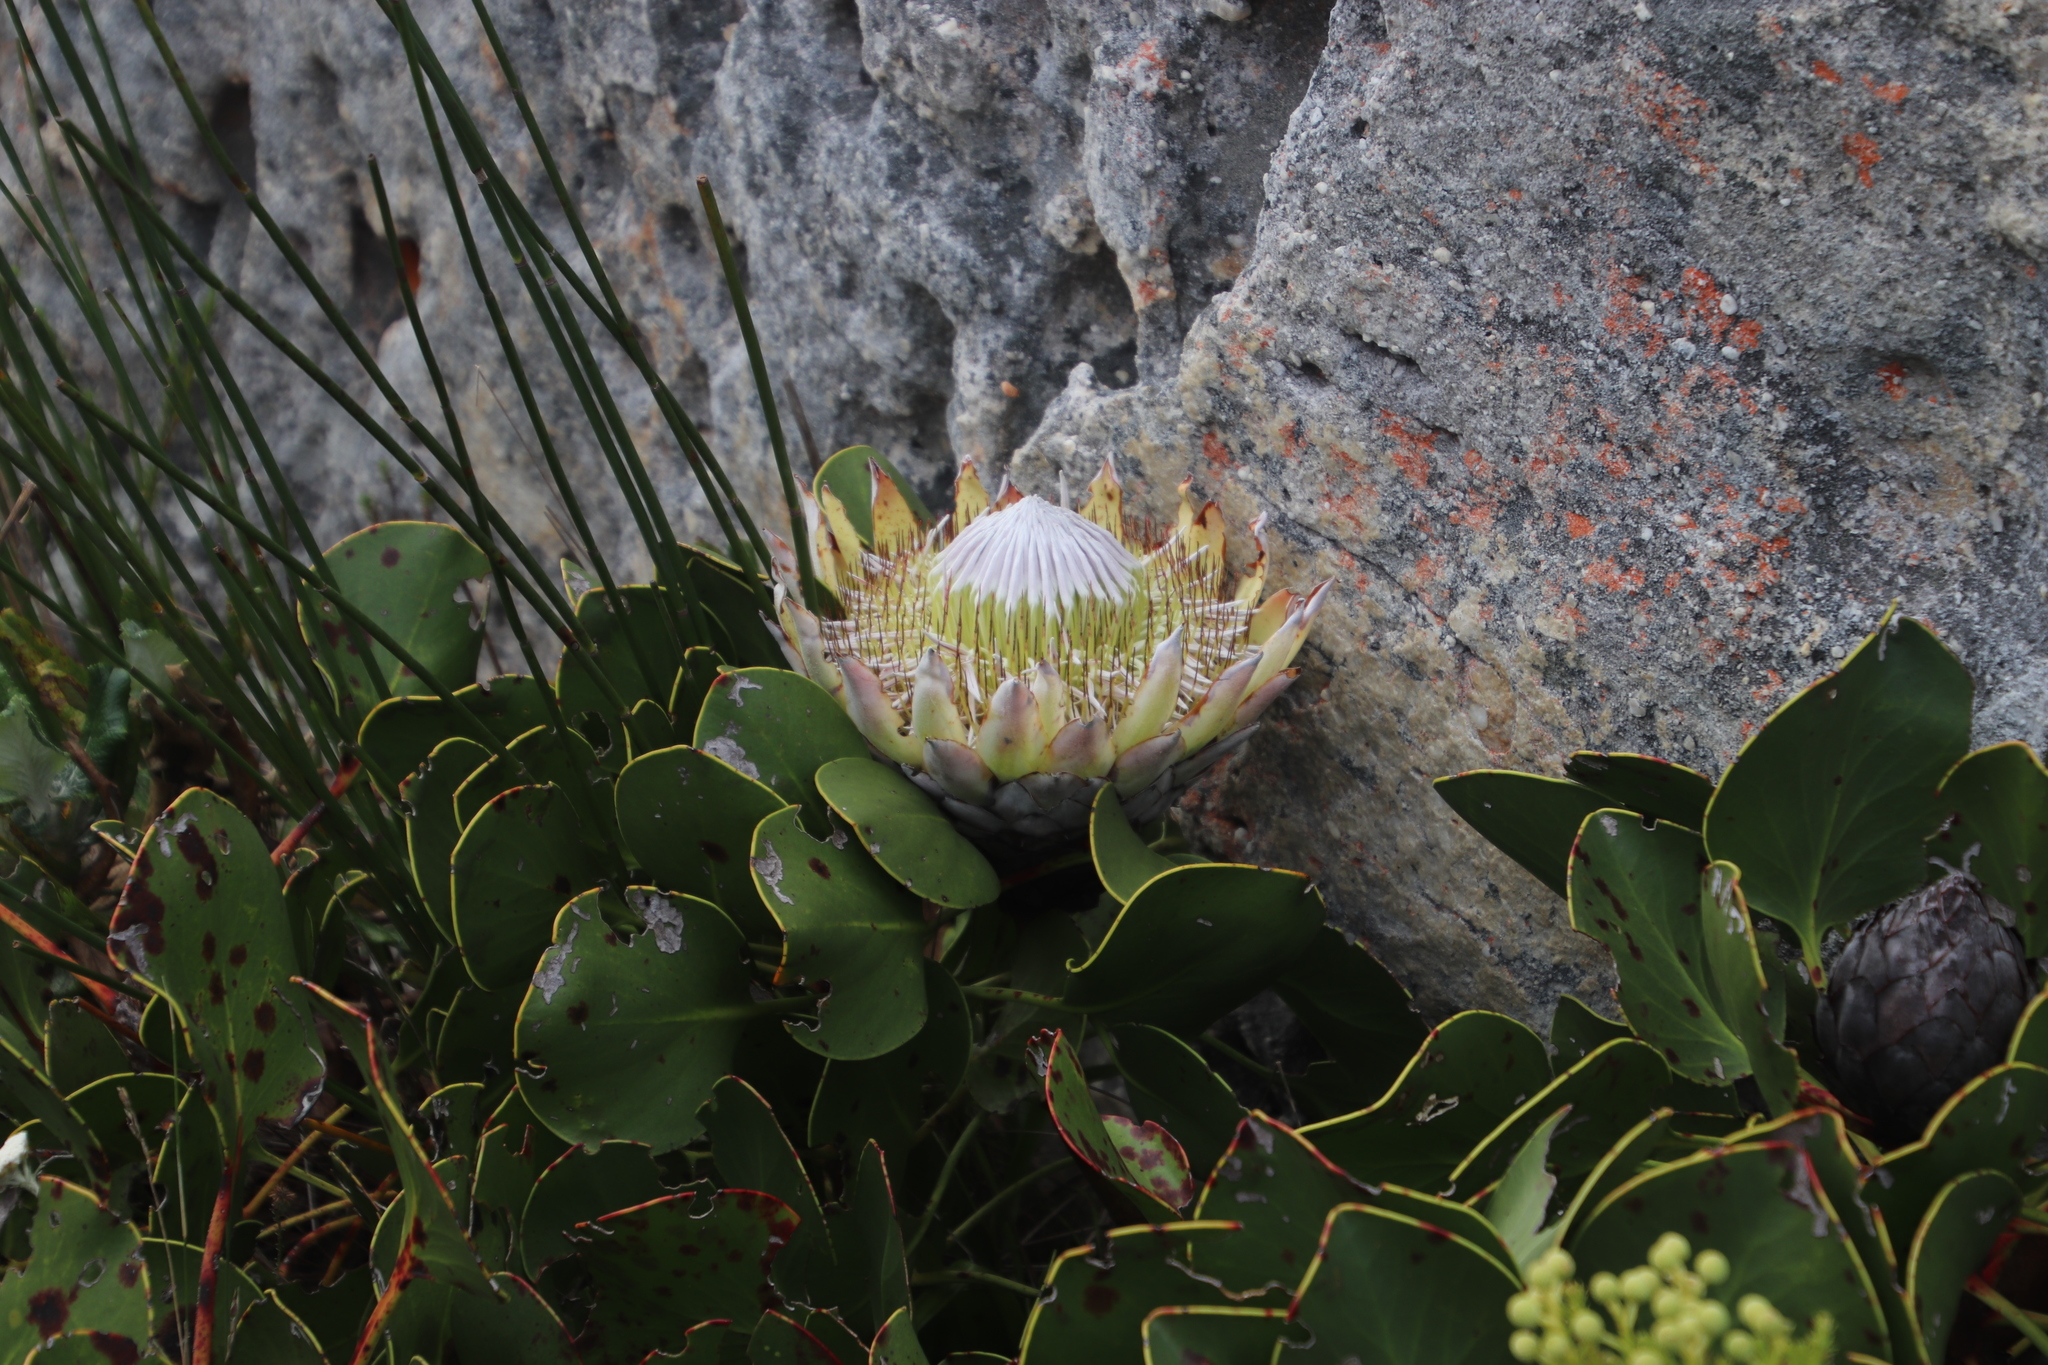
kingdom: Plantae
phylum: Tracheophyta
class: Magnoliopsida
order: Proteales
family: Proteaceae
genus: Protea
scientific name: Protea cynaroides
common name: King protea
